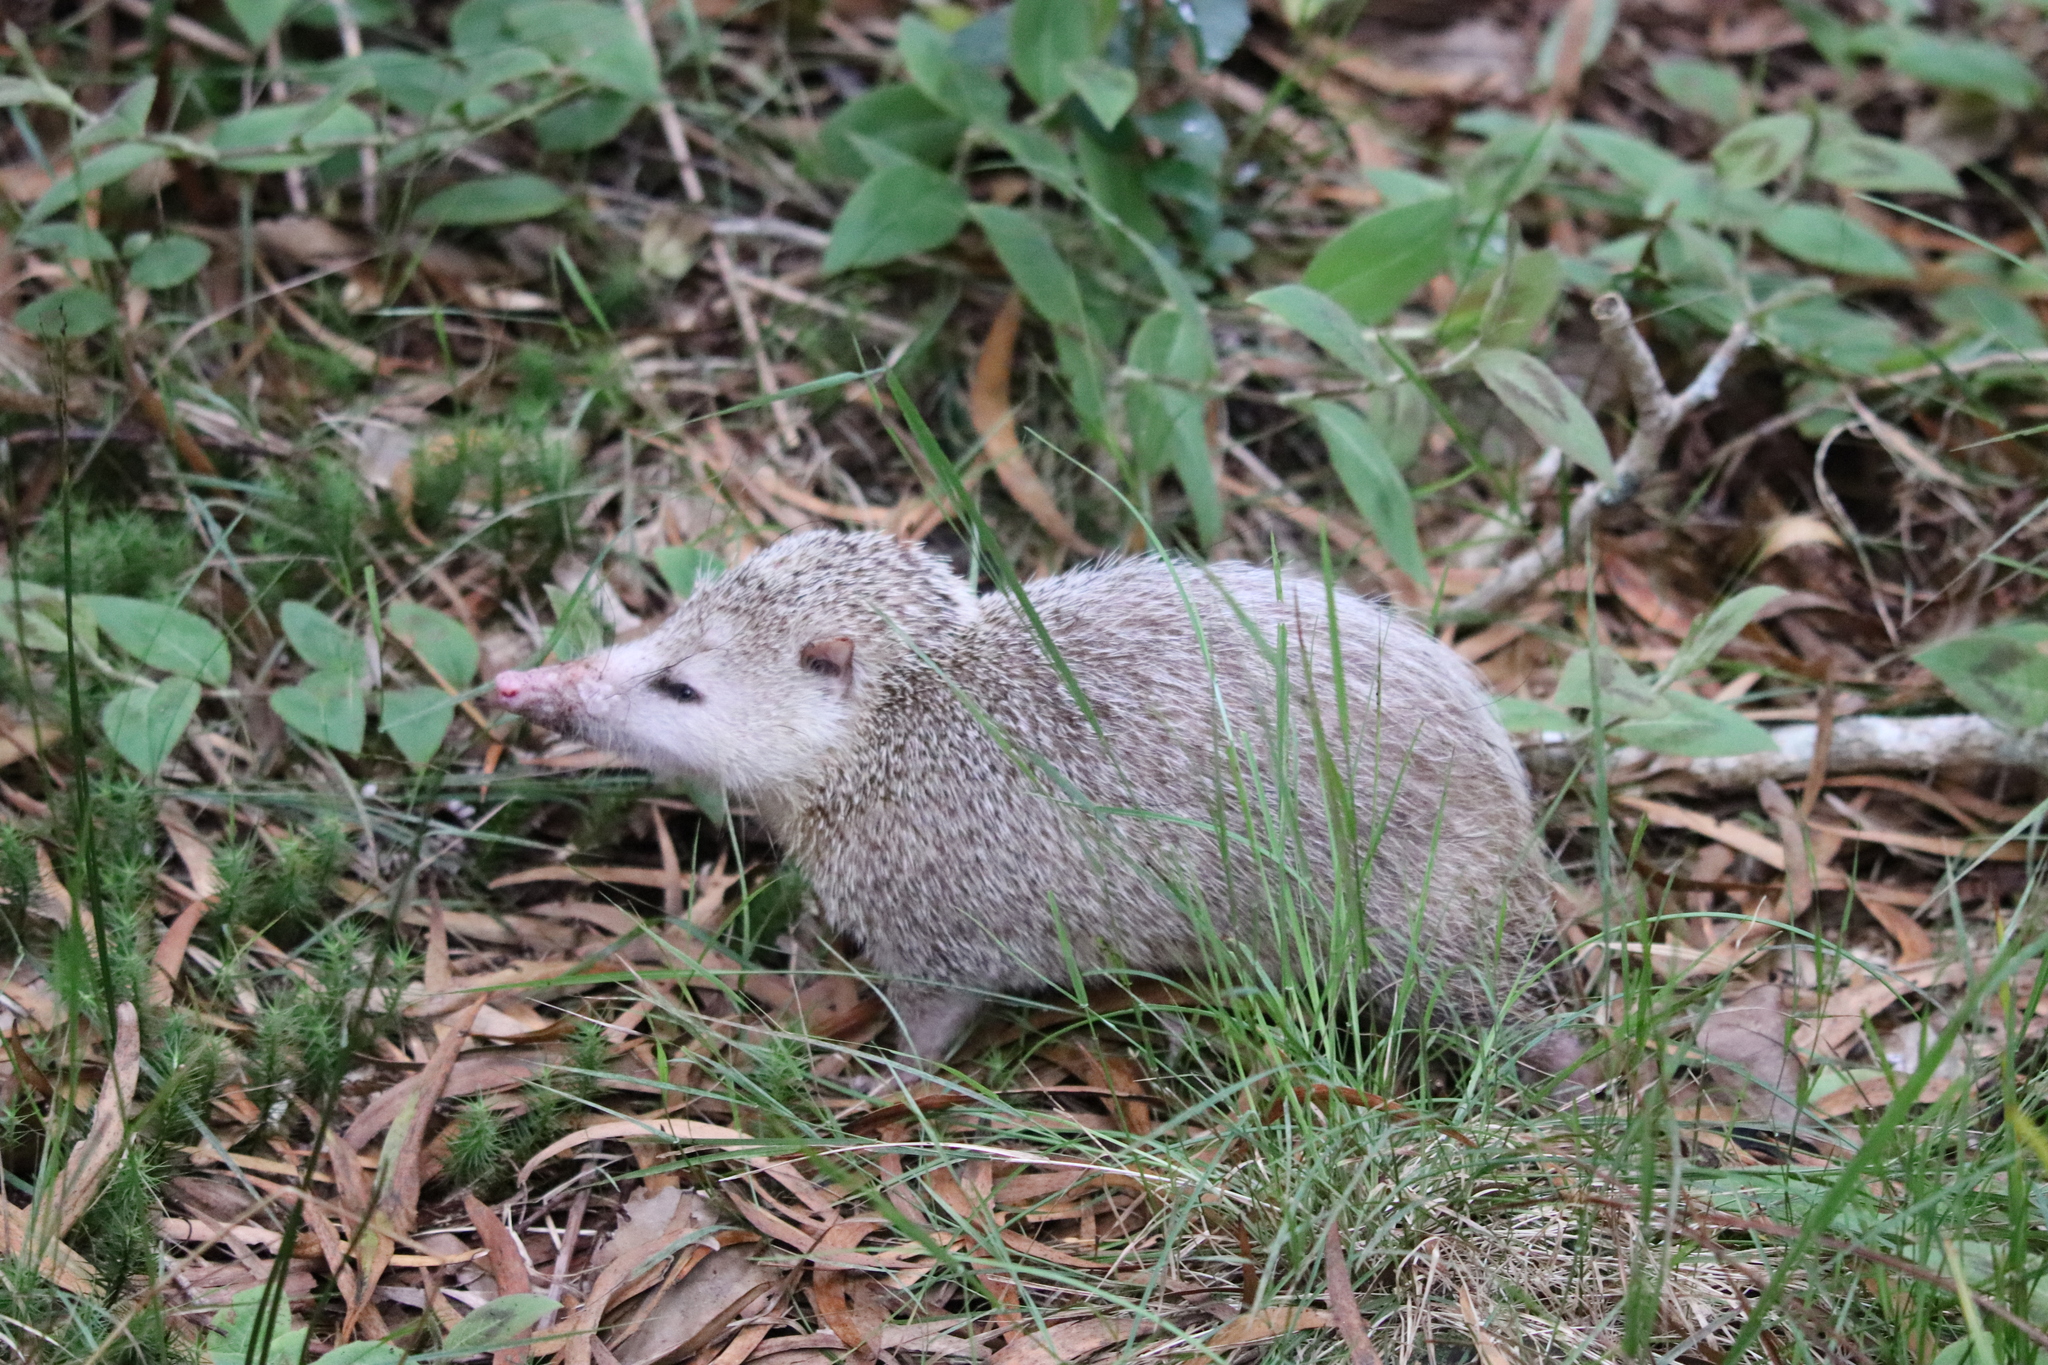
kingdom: Animalia
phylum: Chordata
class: Mammalia
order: Afrosoricida
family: Tenrecidae
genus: Tenrec
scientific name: Tenrec ecaudatus
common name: Common tenrec
